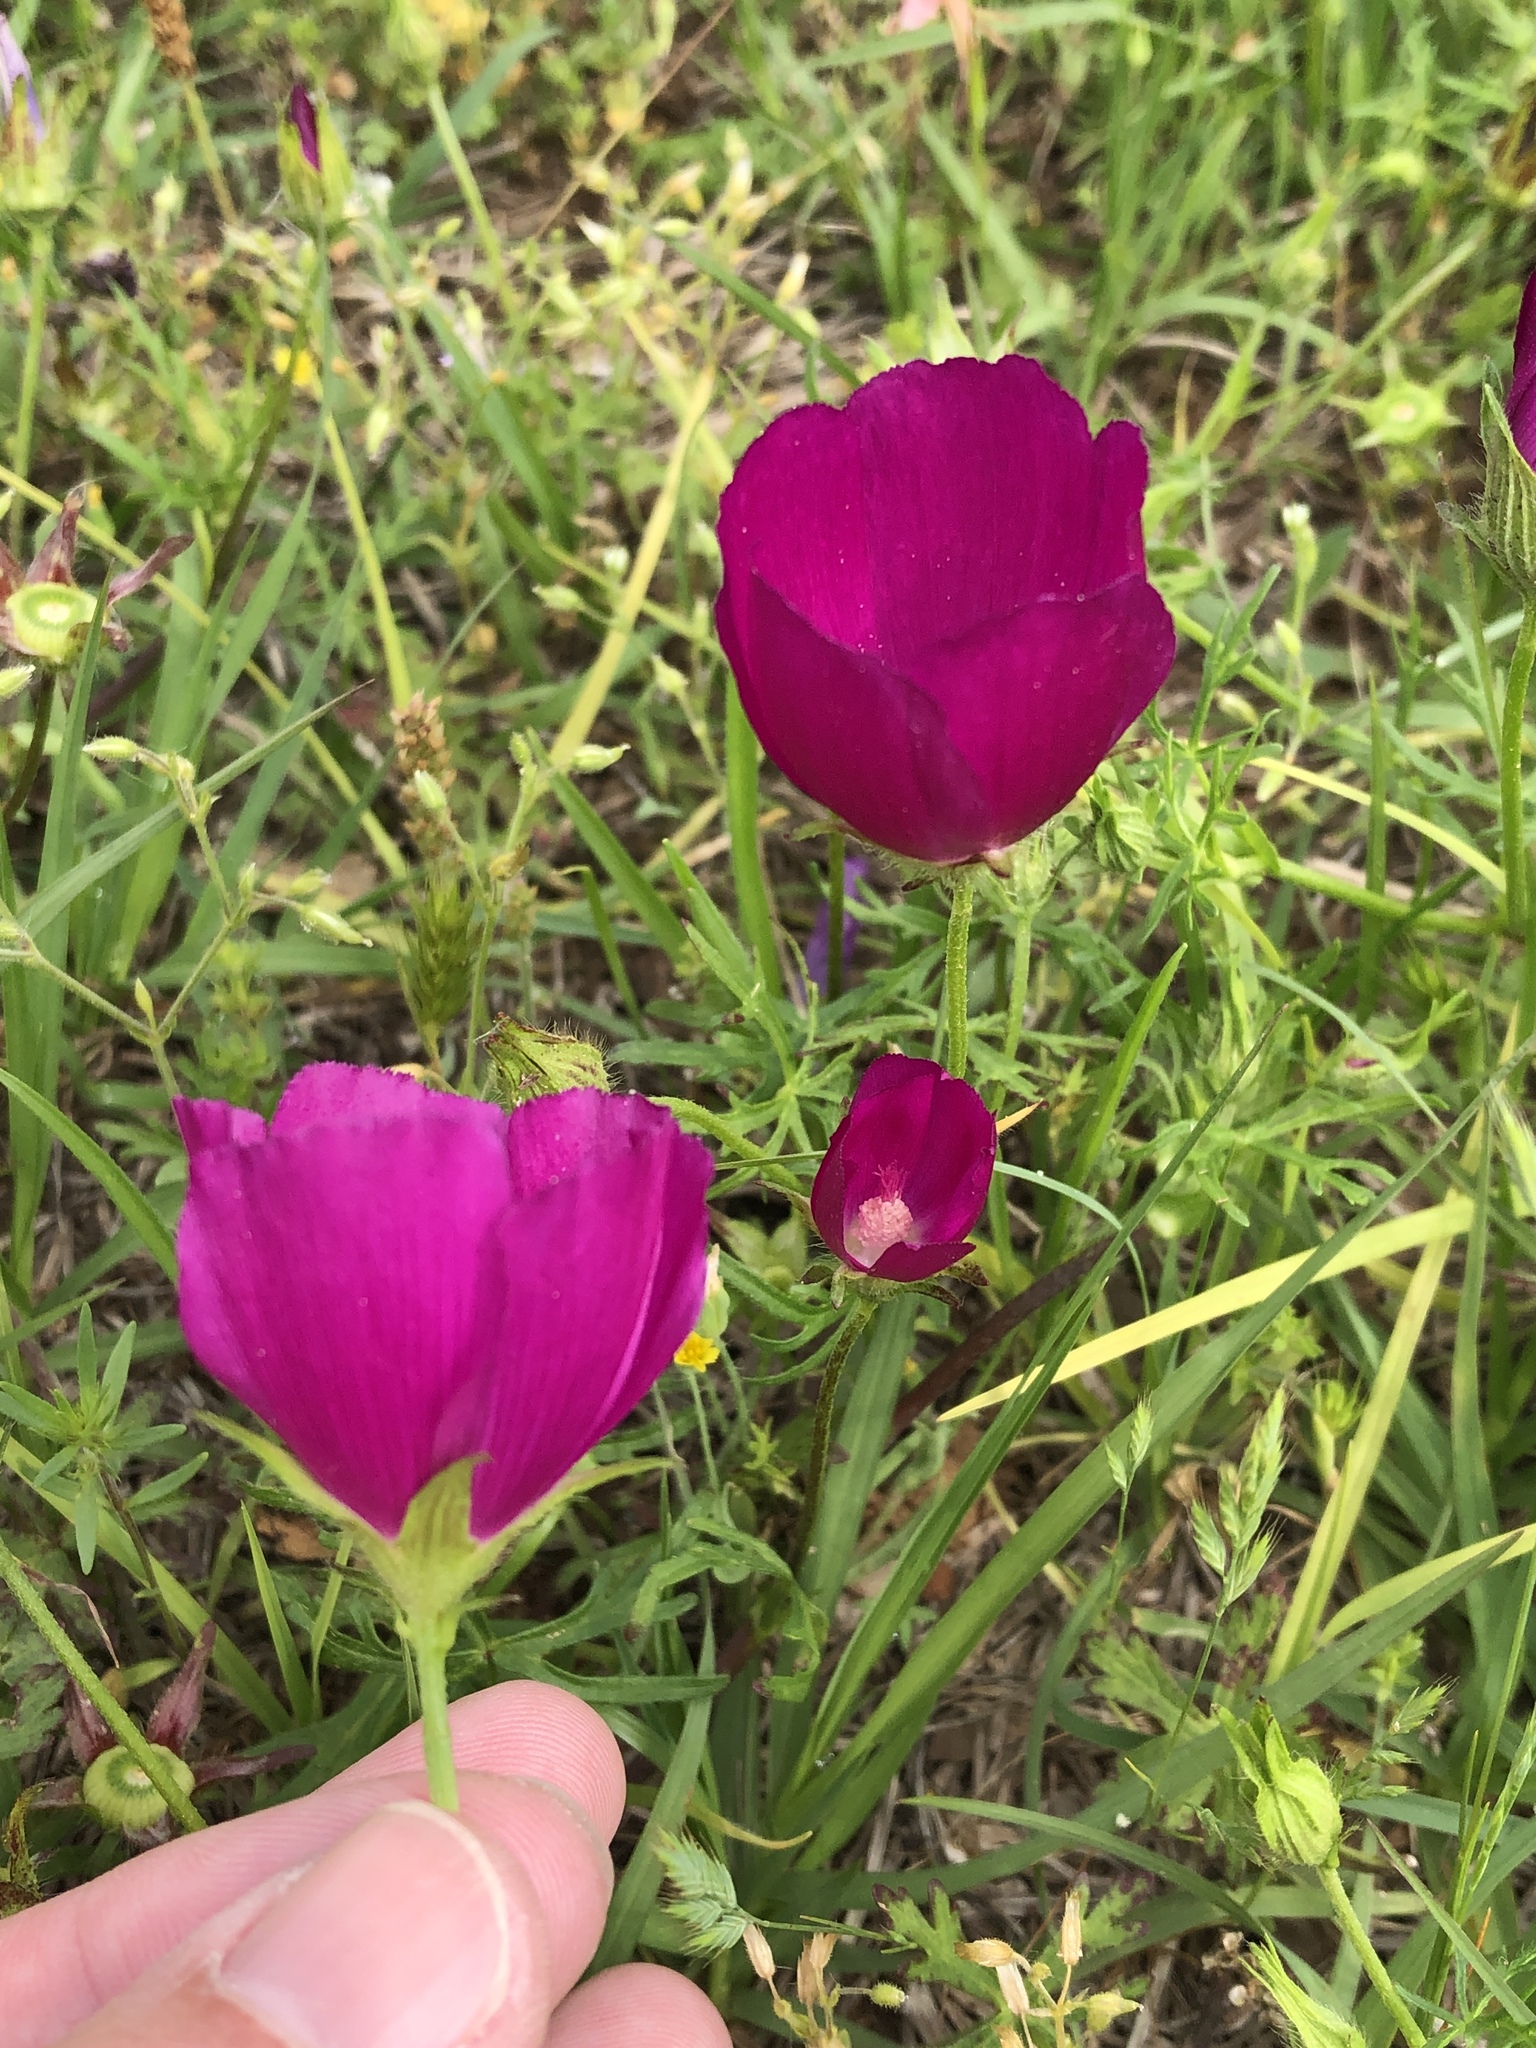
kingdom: Plantae
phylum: Tracheophyta
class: Magnoliopsida
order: Malvales
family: Malvaceae
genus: Callirhoe
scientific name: Callirhoe involucrata
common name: Purple poppy-mallow
